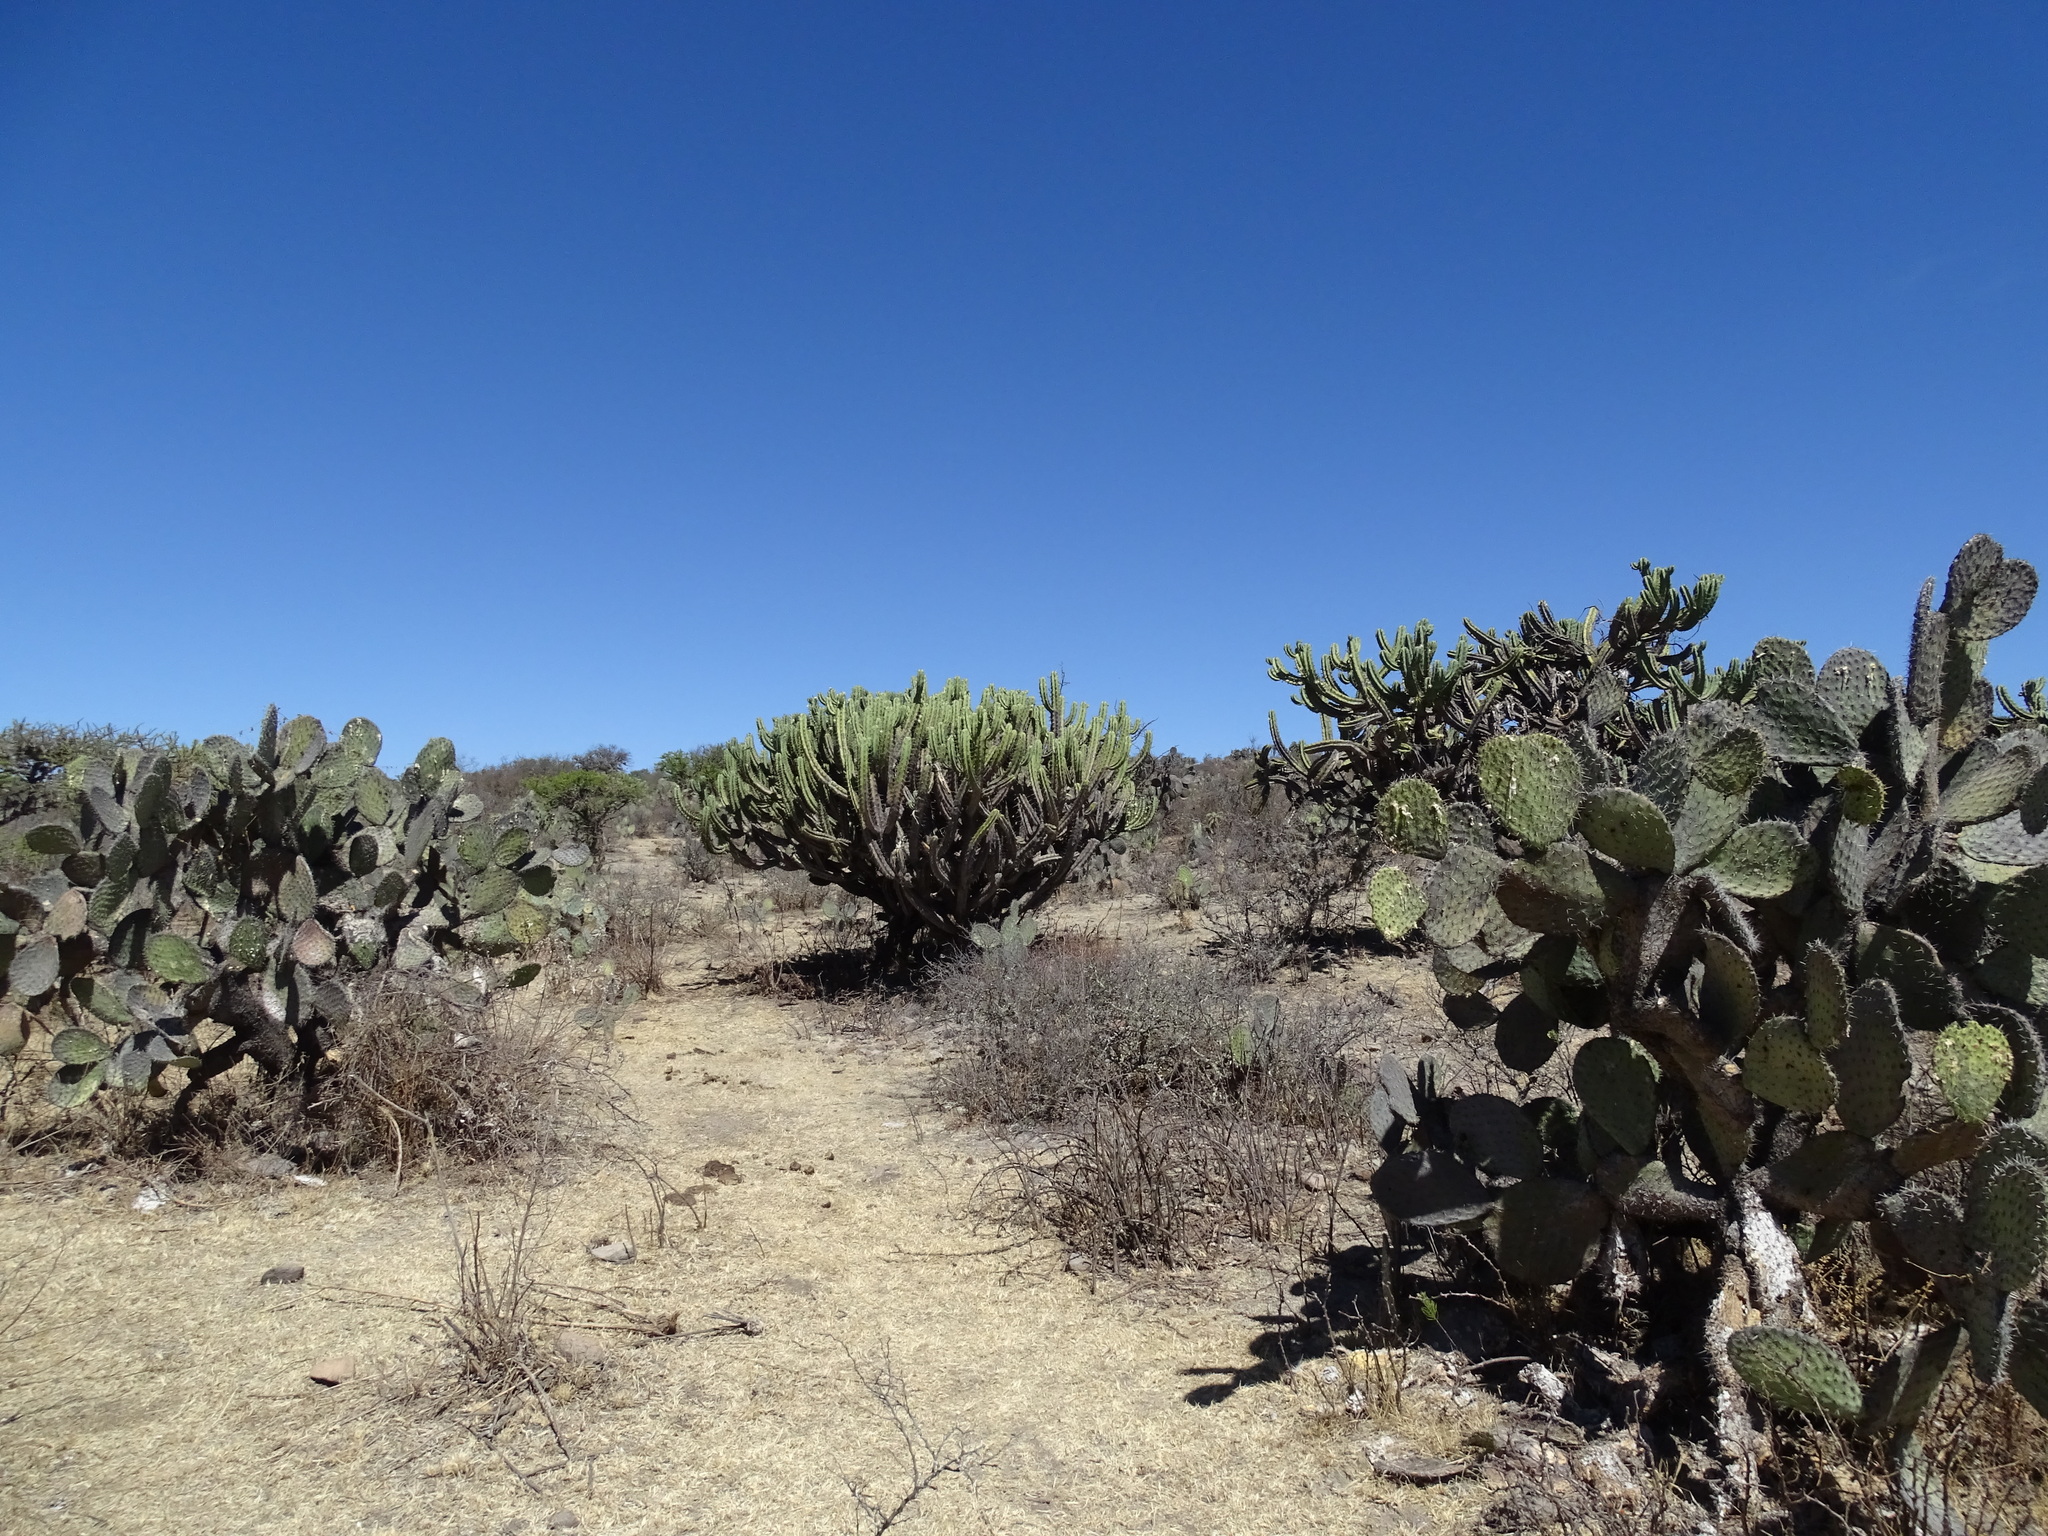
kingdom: Plantae
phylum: Tracheophyta
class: Magnoliopsida
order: Caryophyllales
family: Cactaceae
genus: Myrtillocactus
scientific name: Myrtillocactus geometrizans
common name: Bilberry cactus
